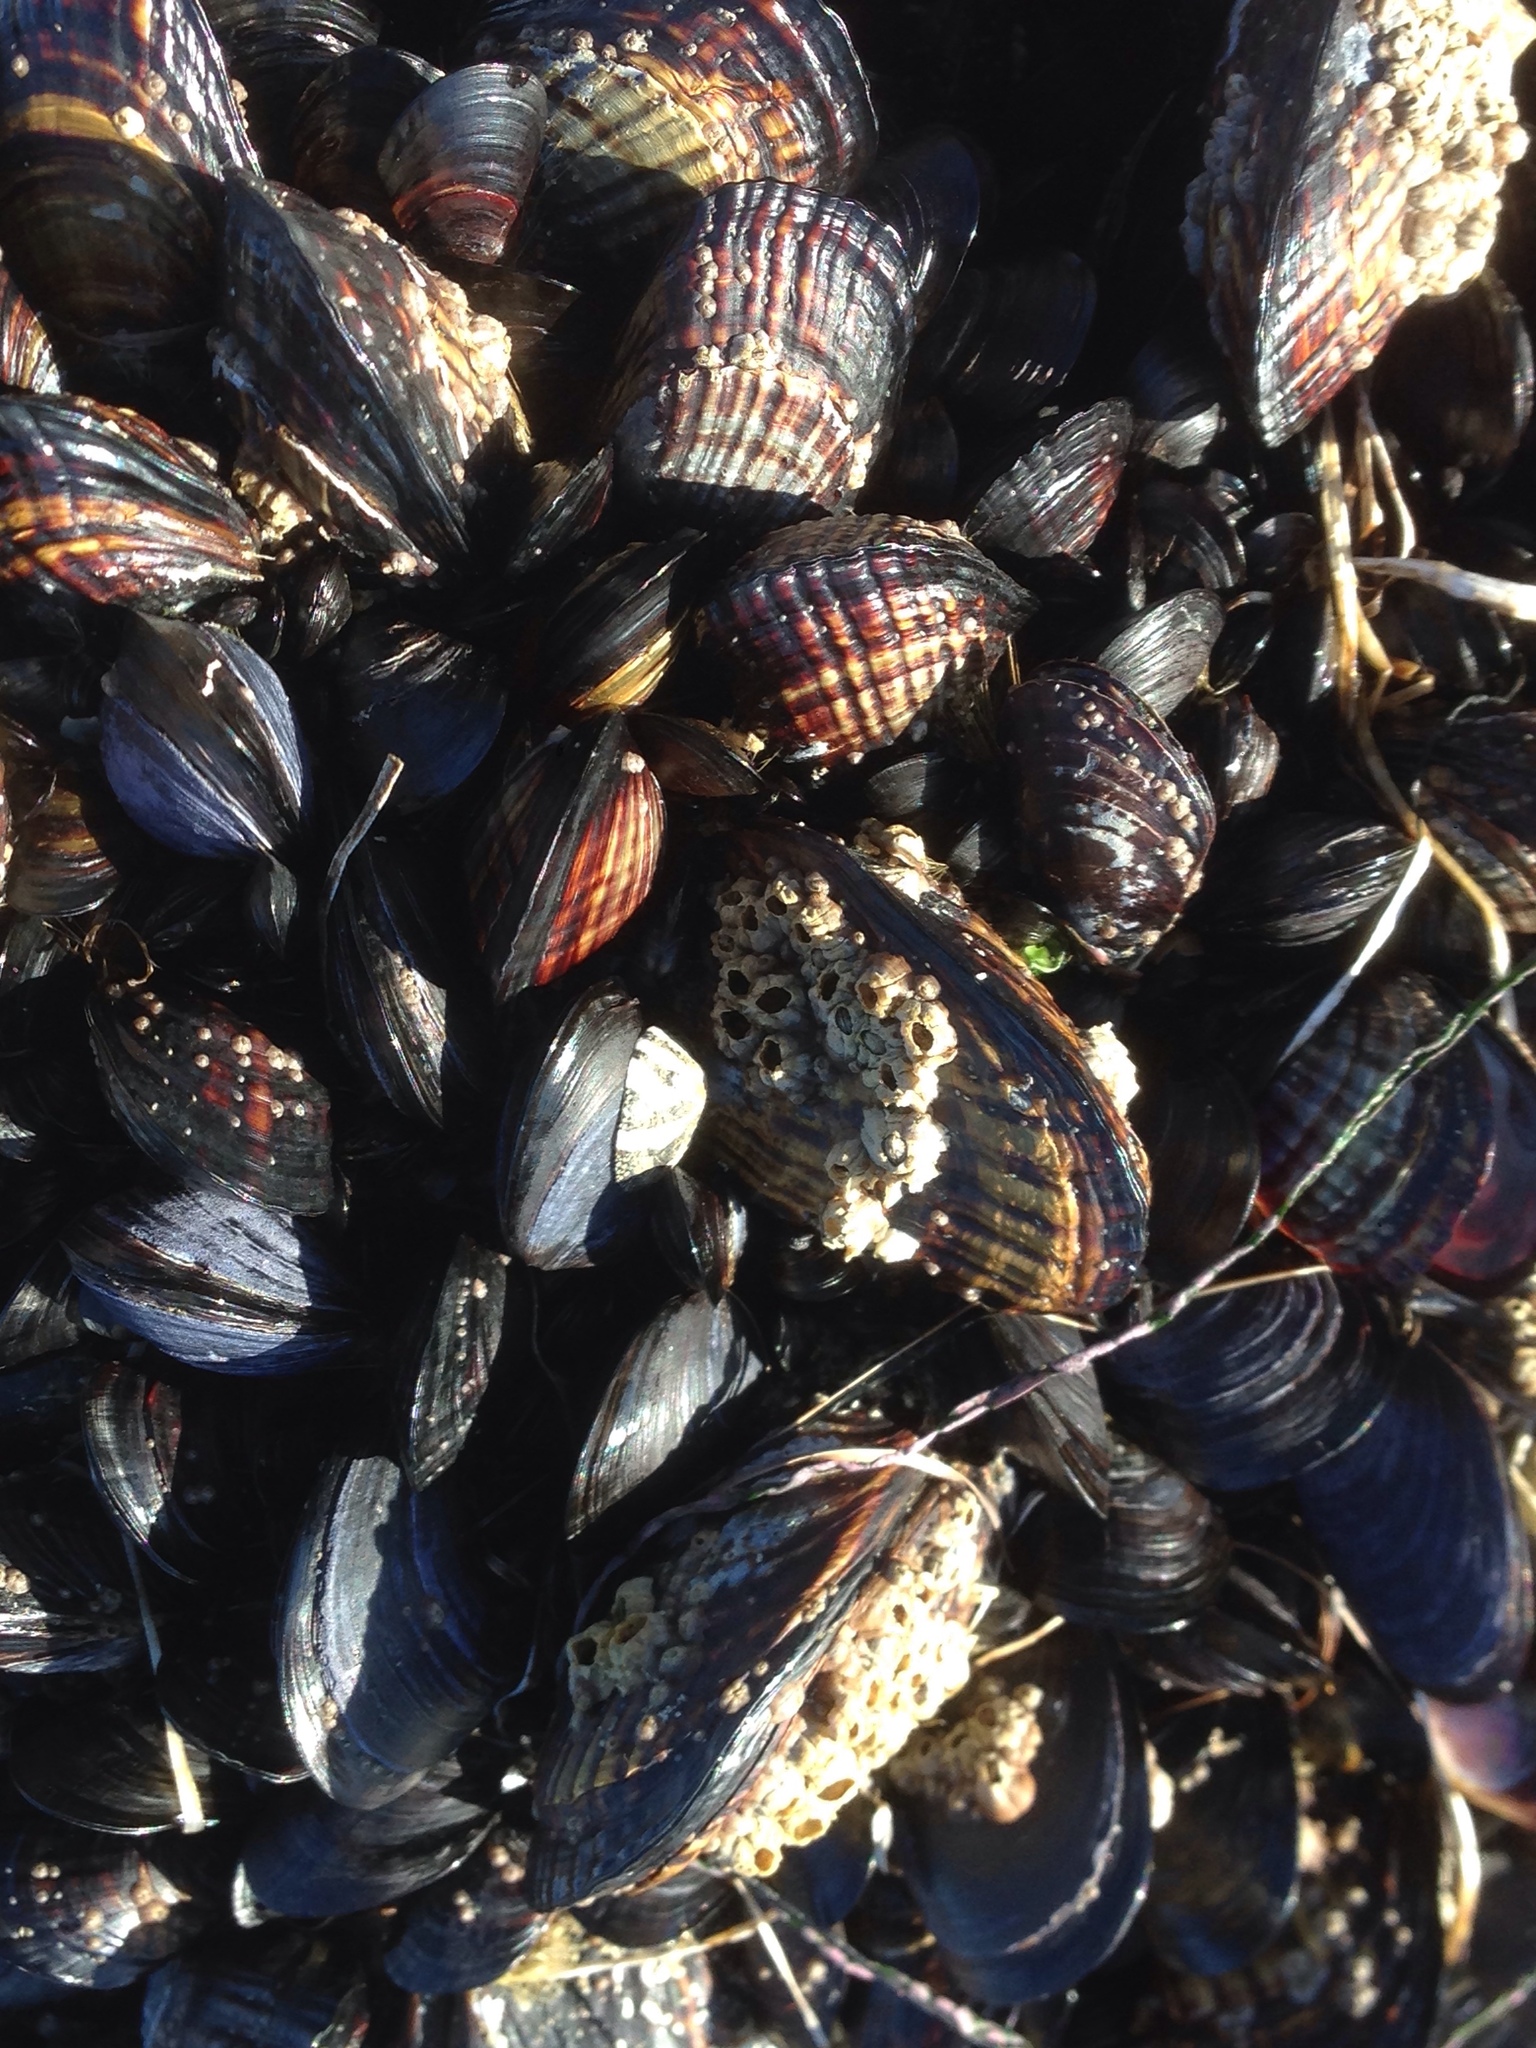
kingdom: Animalia
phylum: Mollusca
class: Bivalvia
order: Mytilida
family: Mytilidae
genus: Mytilus
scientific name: Mytilus californianus
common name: California mussel
